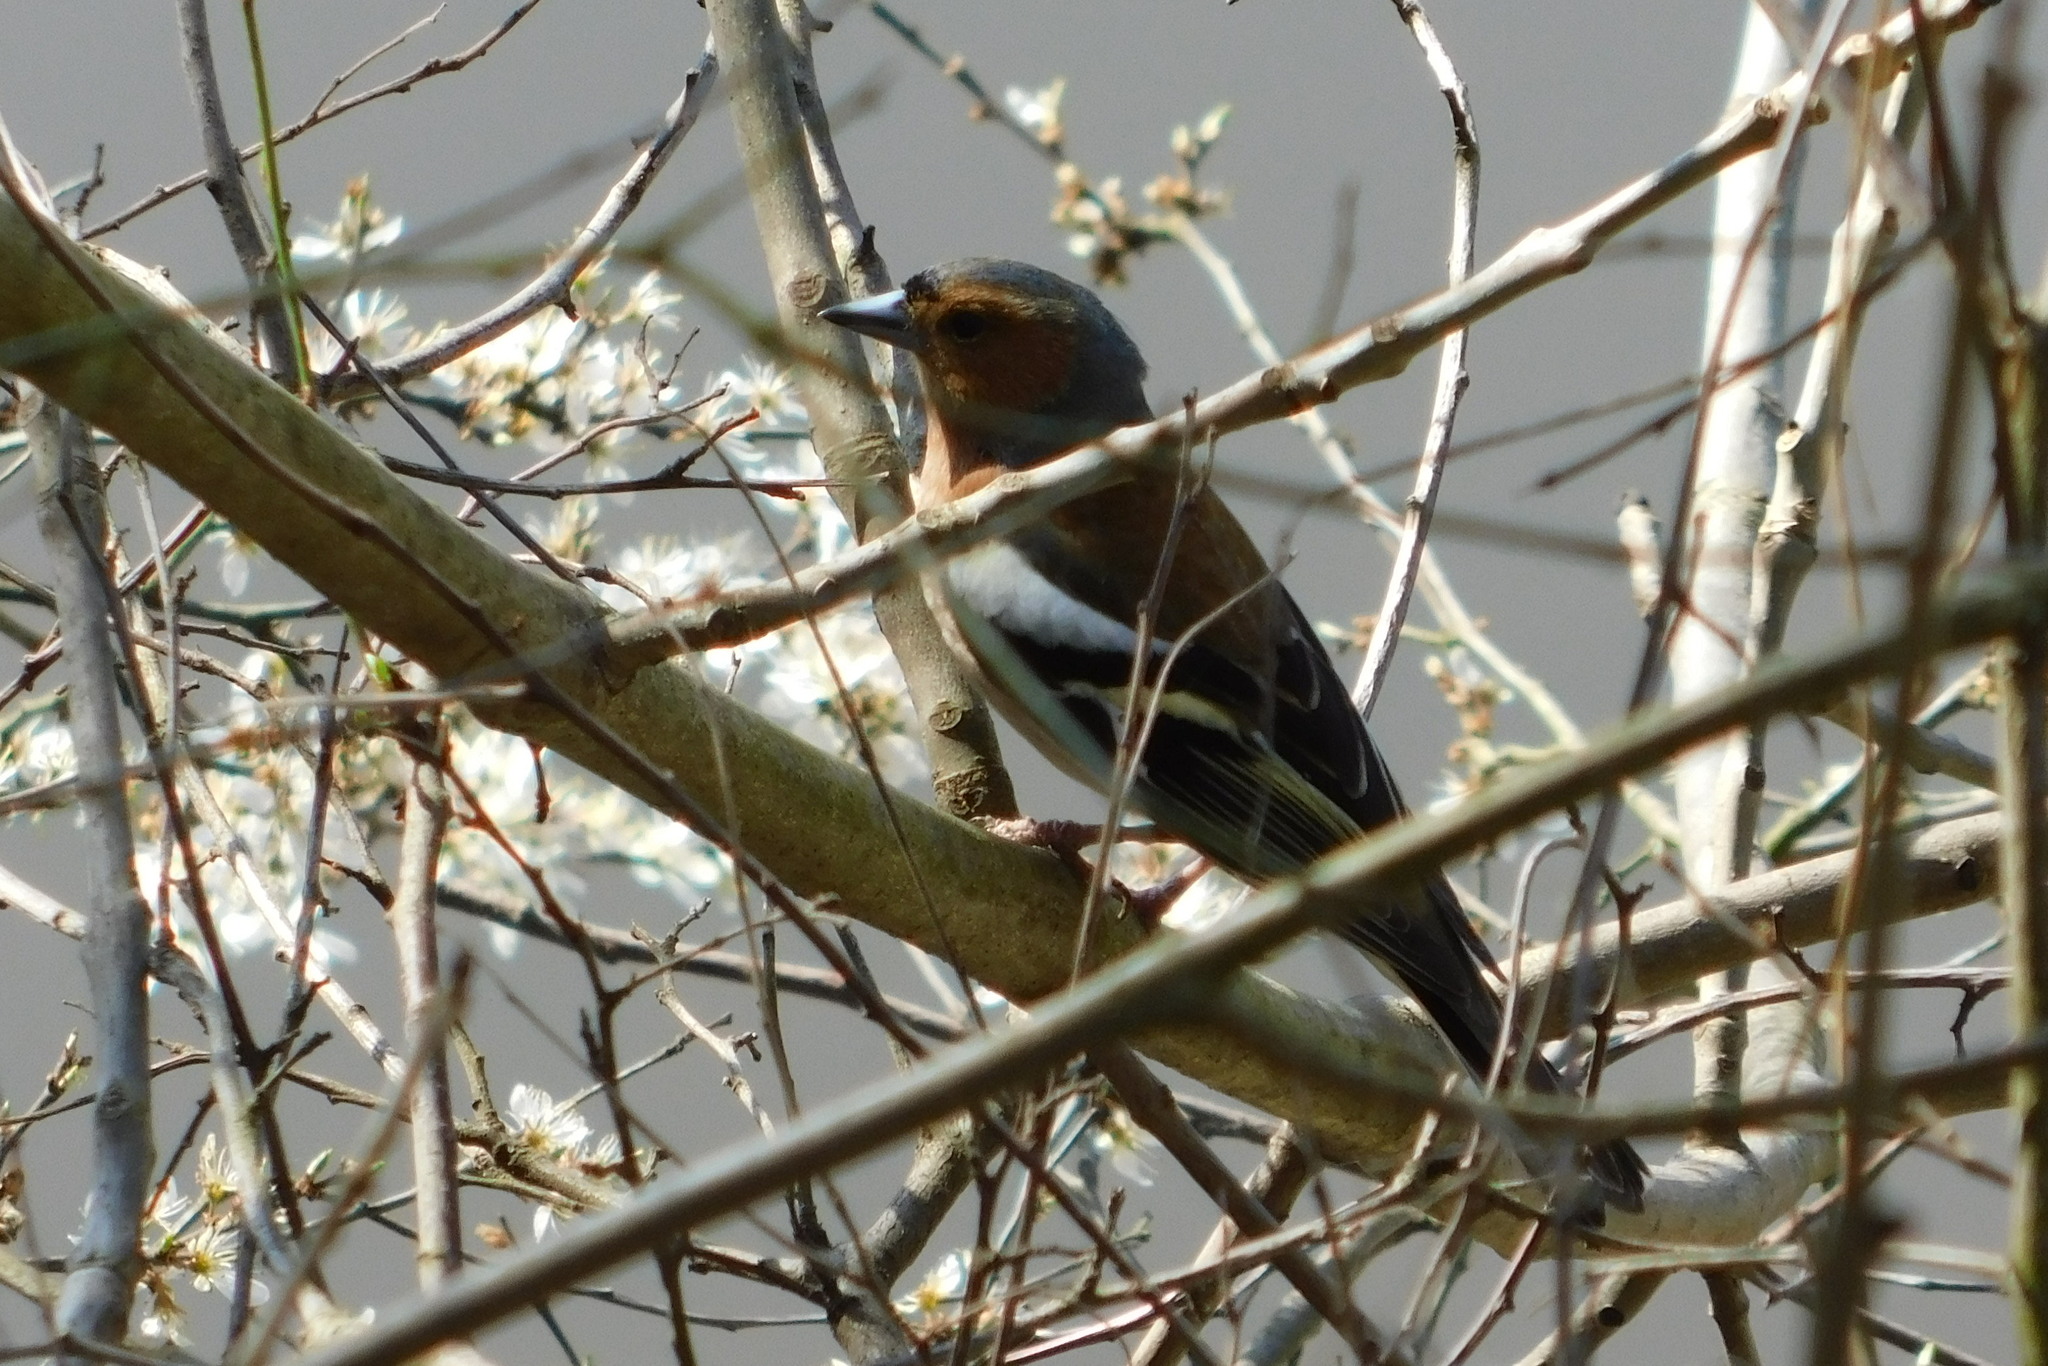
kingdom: Animalia
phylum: Chordata
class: Aves
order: Passeriformes
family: Fringillidae
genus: Fringilla
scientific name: Fringilla coelebs
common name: Common chaffinch
